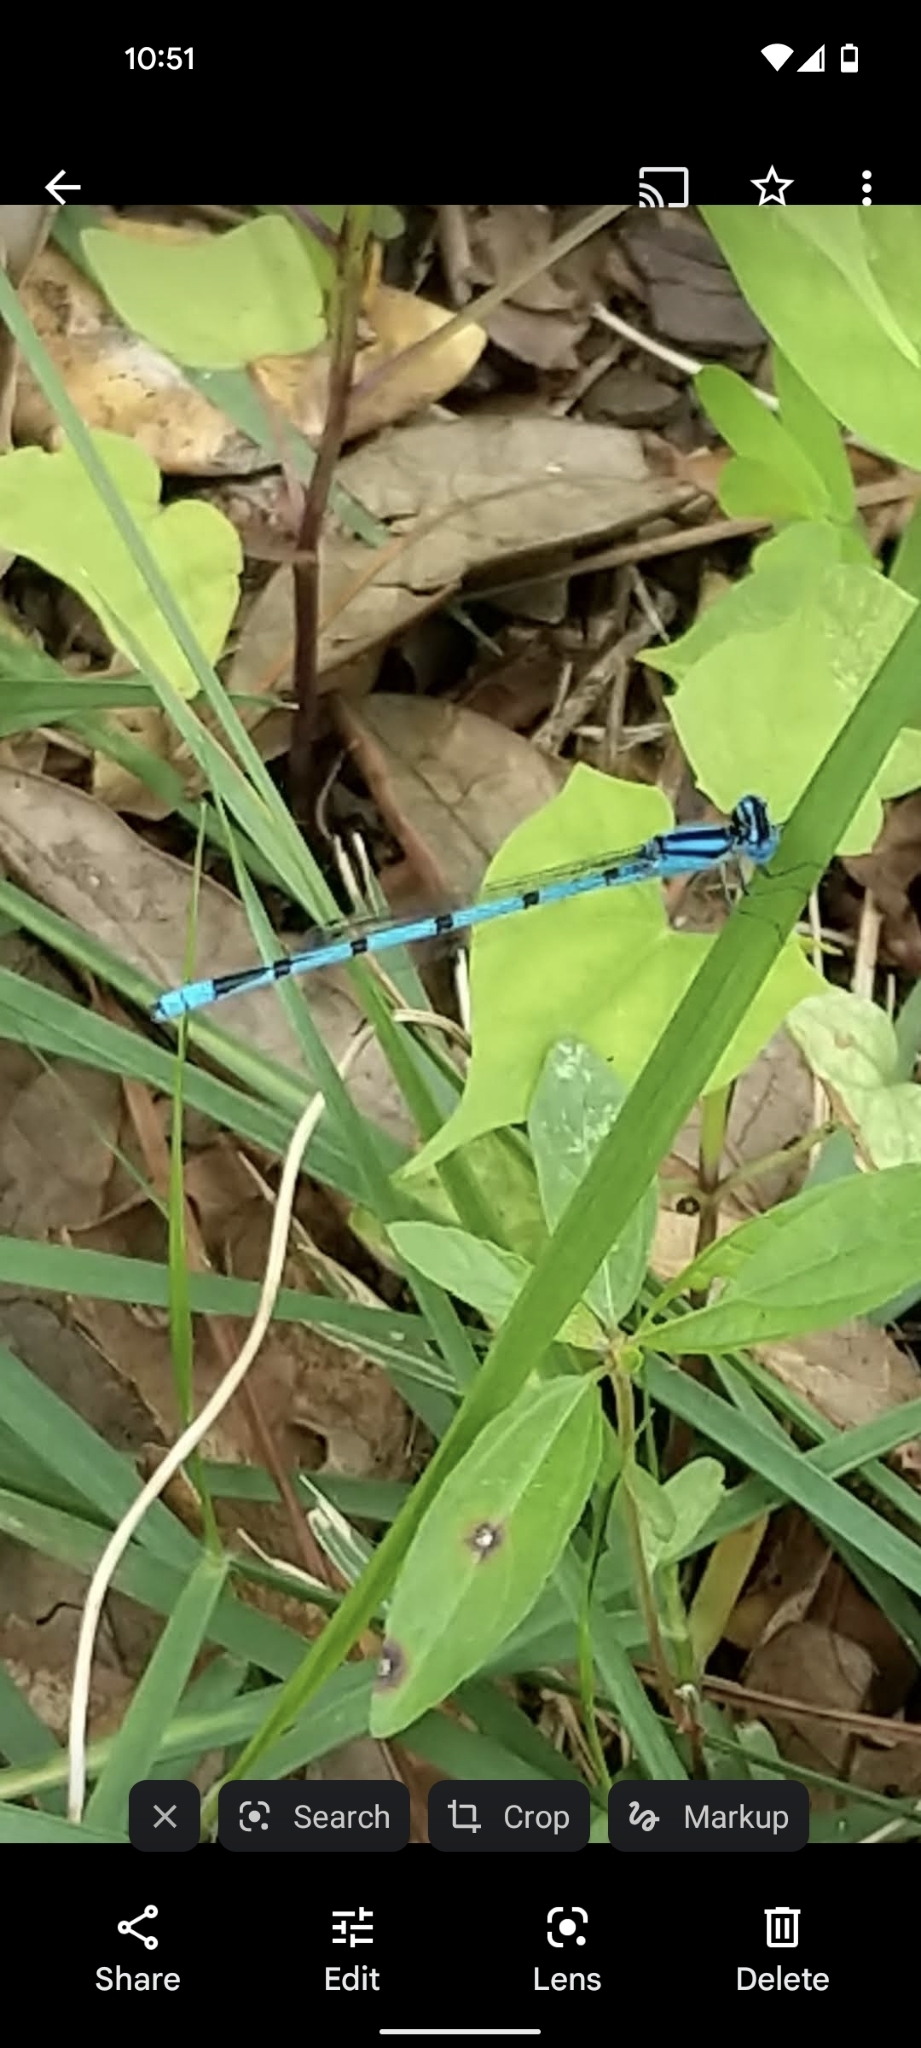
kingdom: Animalia
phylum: Arthropoda
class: Insecta
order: Odonata
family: Coenagrionidae
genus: Enallagma
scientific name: Enallagma doubledayi
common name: Atlantic bluet
